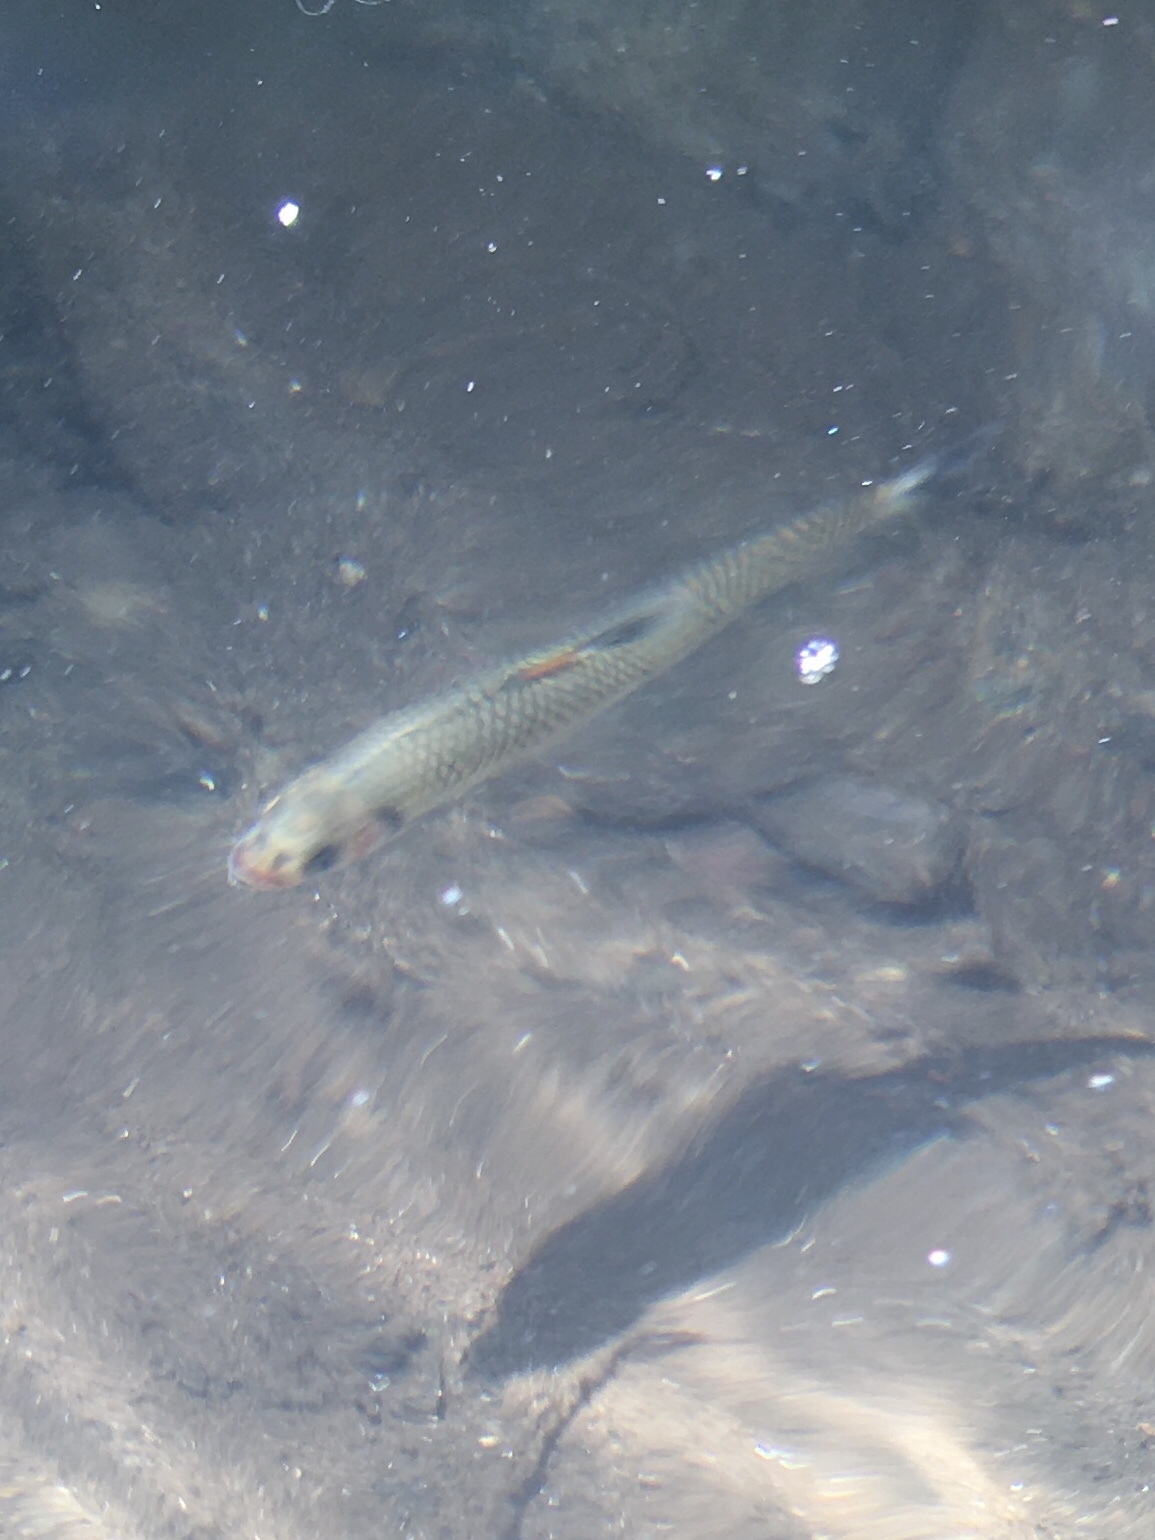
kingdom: Animalia
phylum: Chordata
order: Cypriniformes
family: Cyprinidae
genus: Luxilus
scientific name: Luxilus
